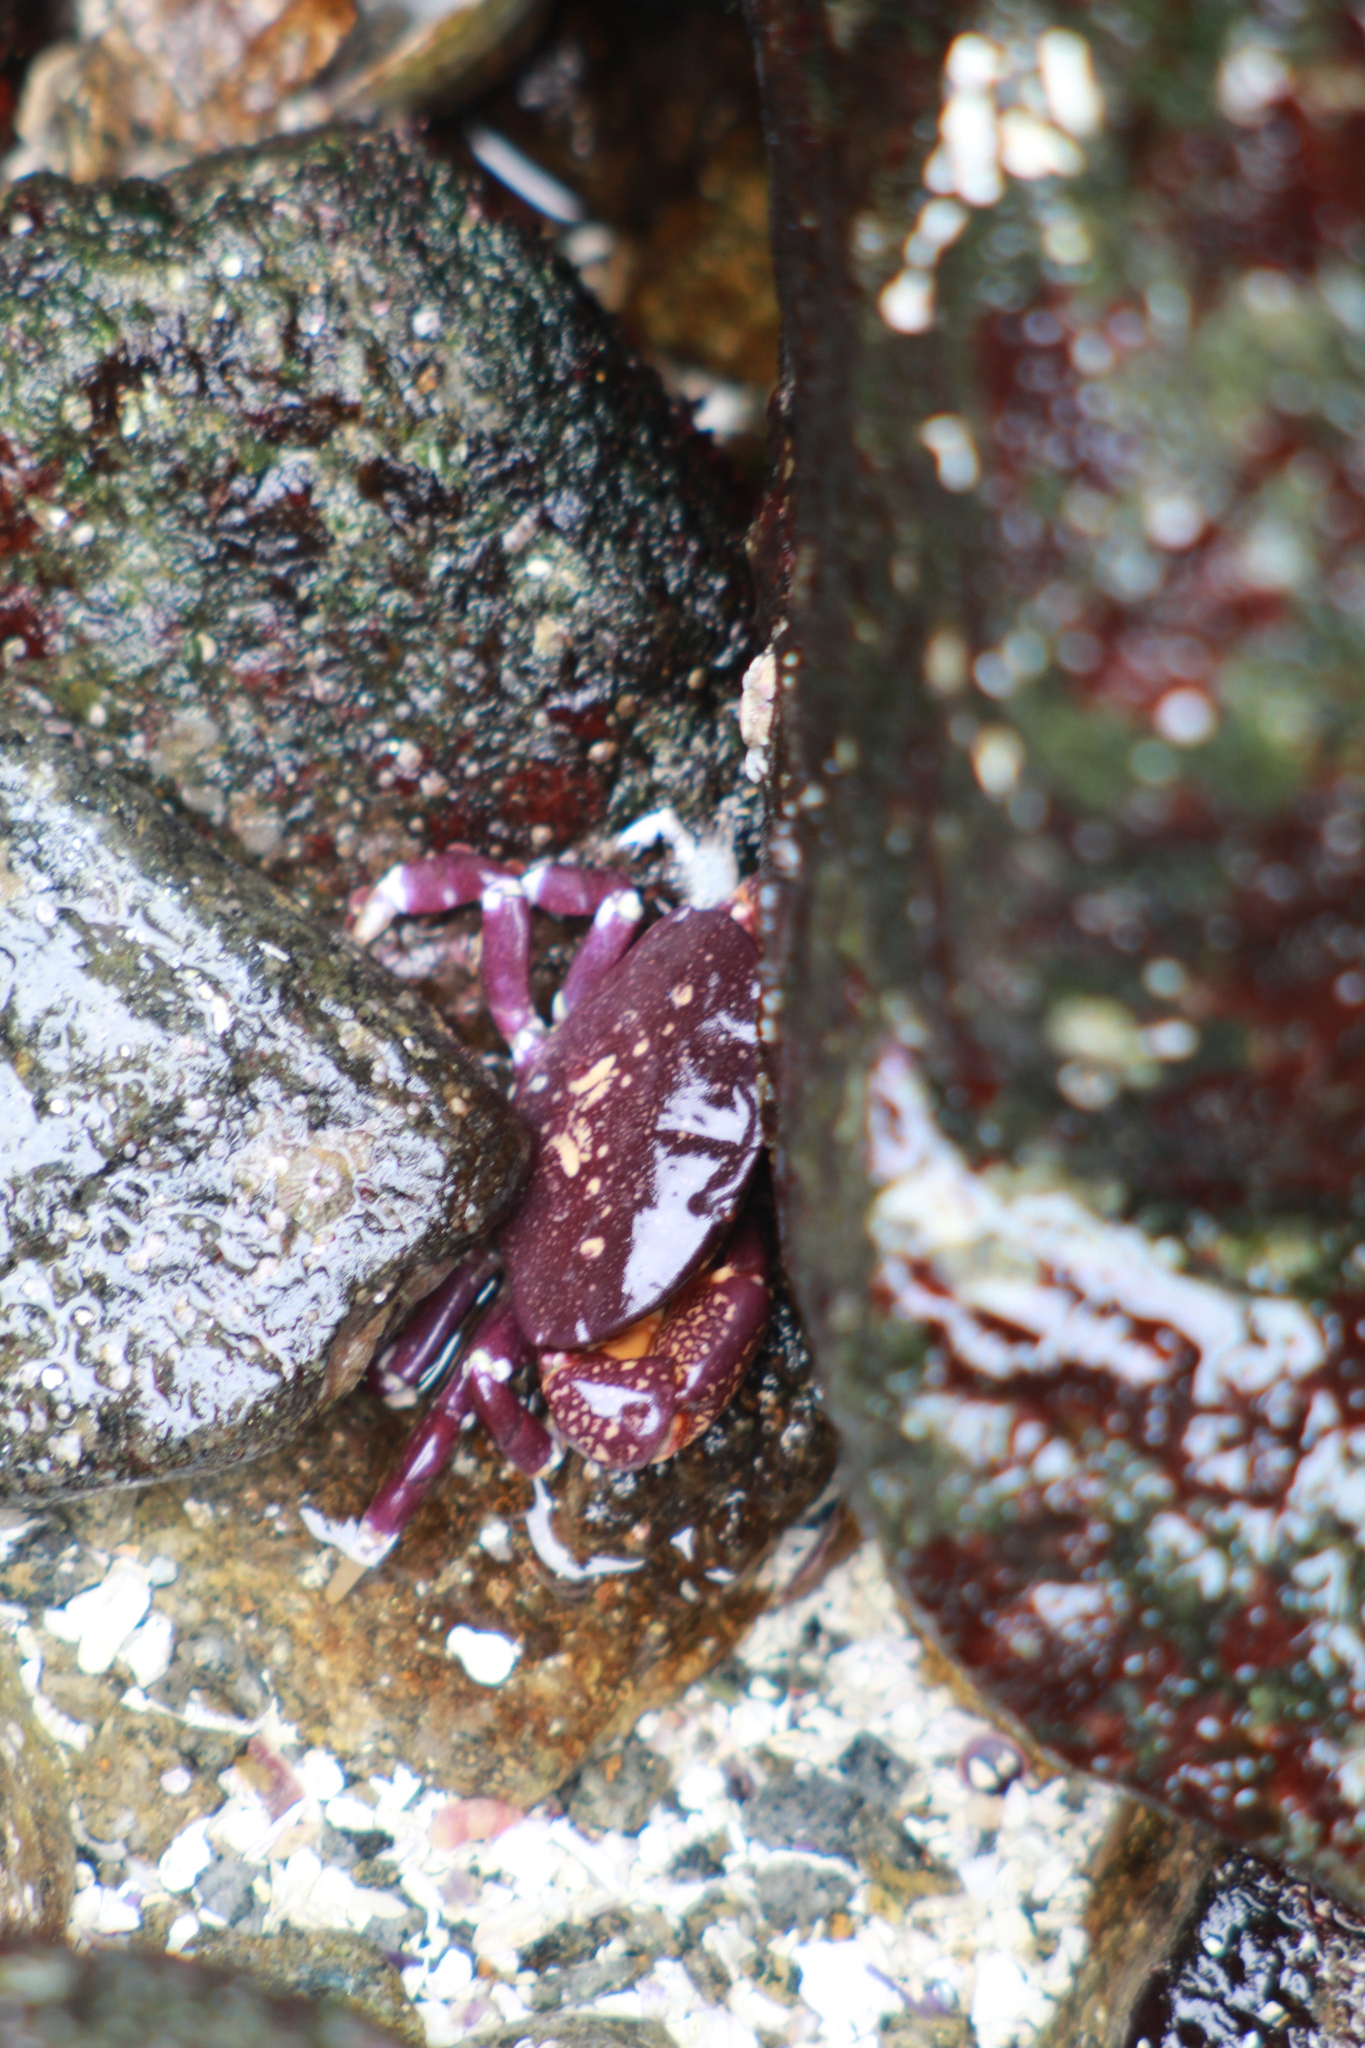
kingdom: Animalia
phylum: Arthropoda
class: Malacostraca
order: Decapoda
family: Platyxanthidae
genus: Homalaspis
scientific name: Homalaspis plana
